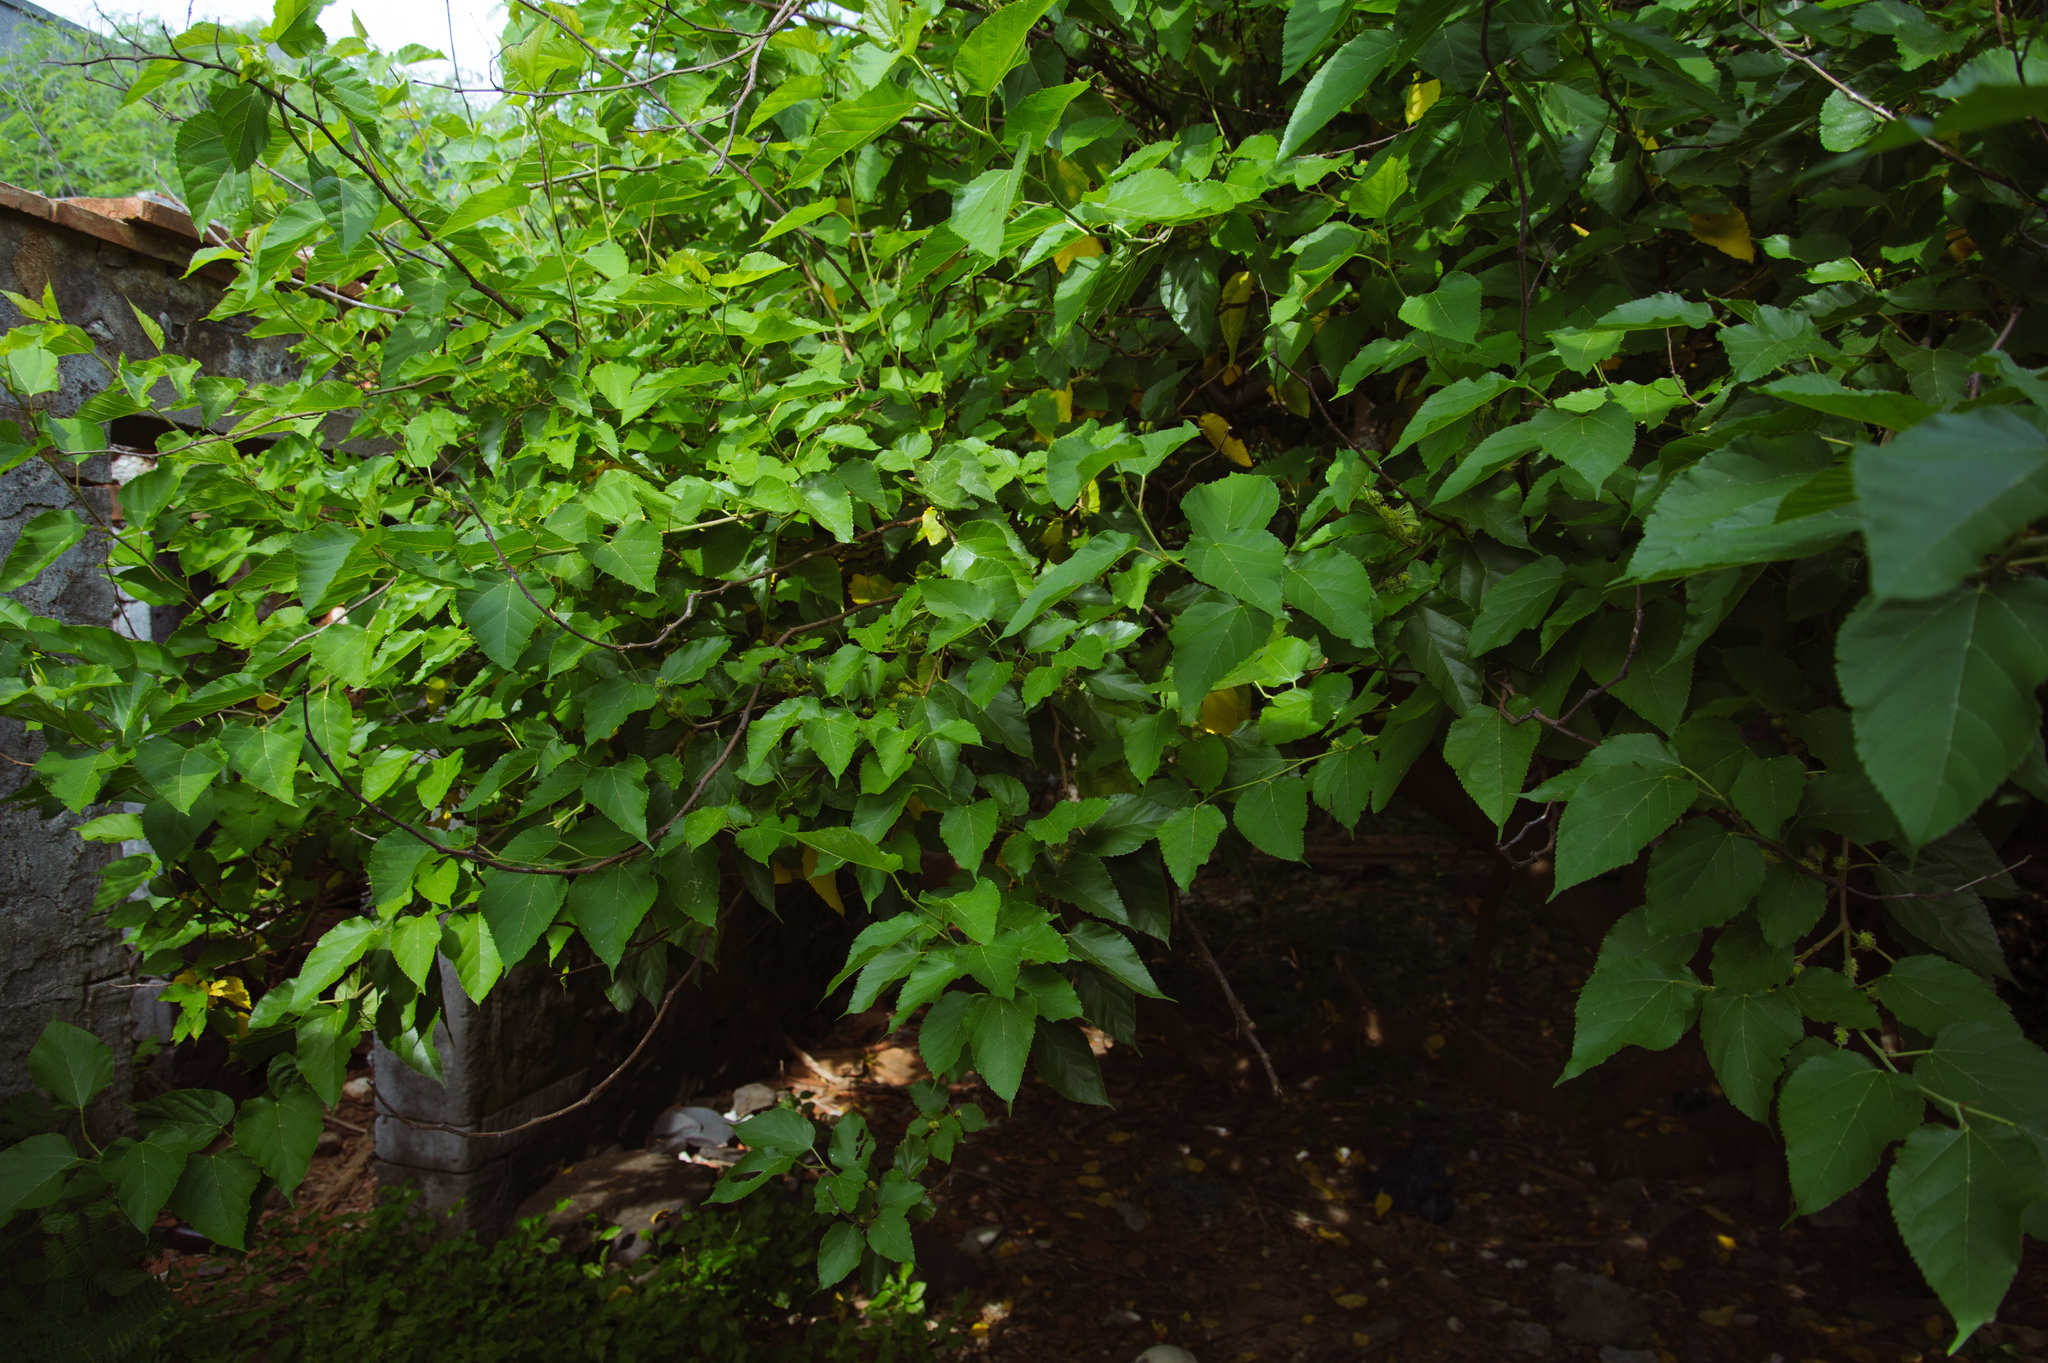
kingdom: Plantae
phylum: Tracheophyta
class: Magnoliopsida
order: Rosales
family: Moraceae
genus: Morus
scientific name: Morus indica
